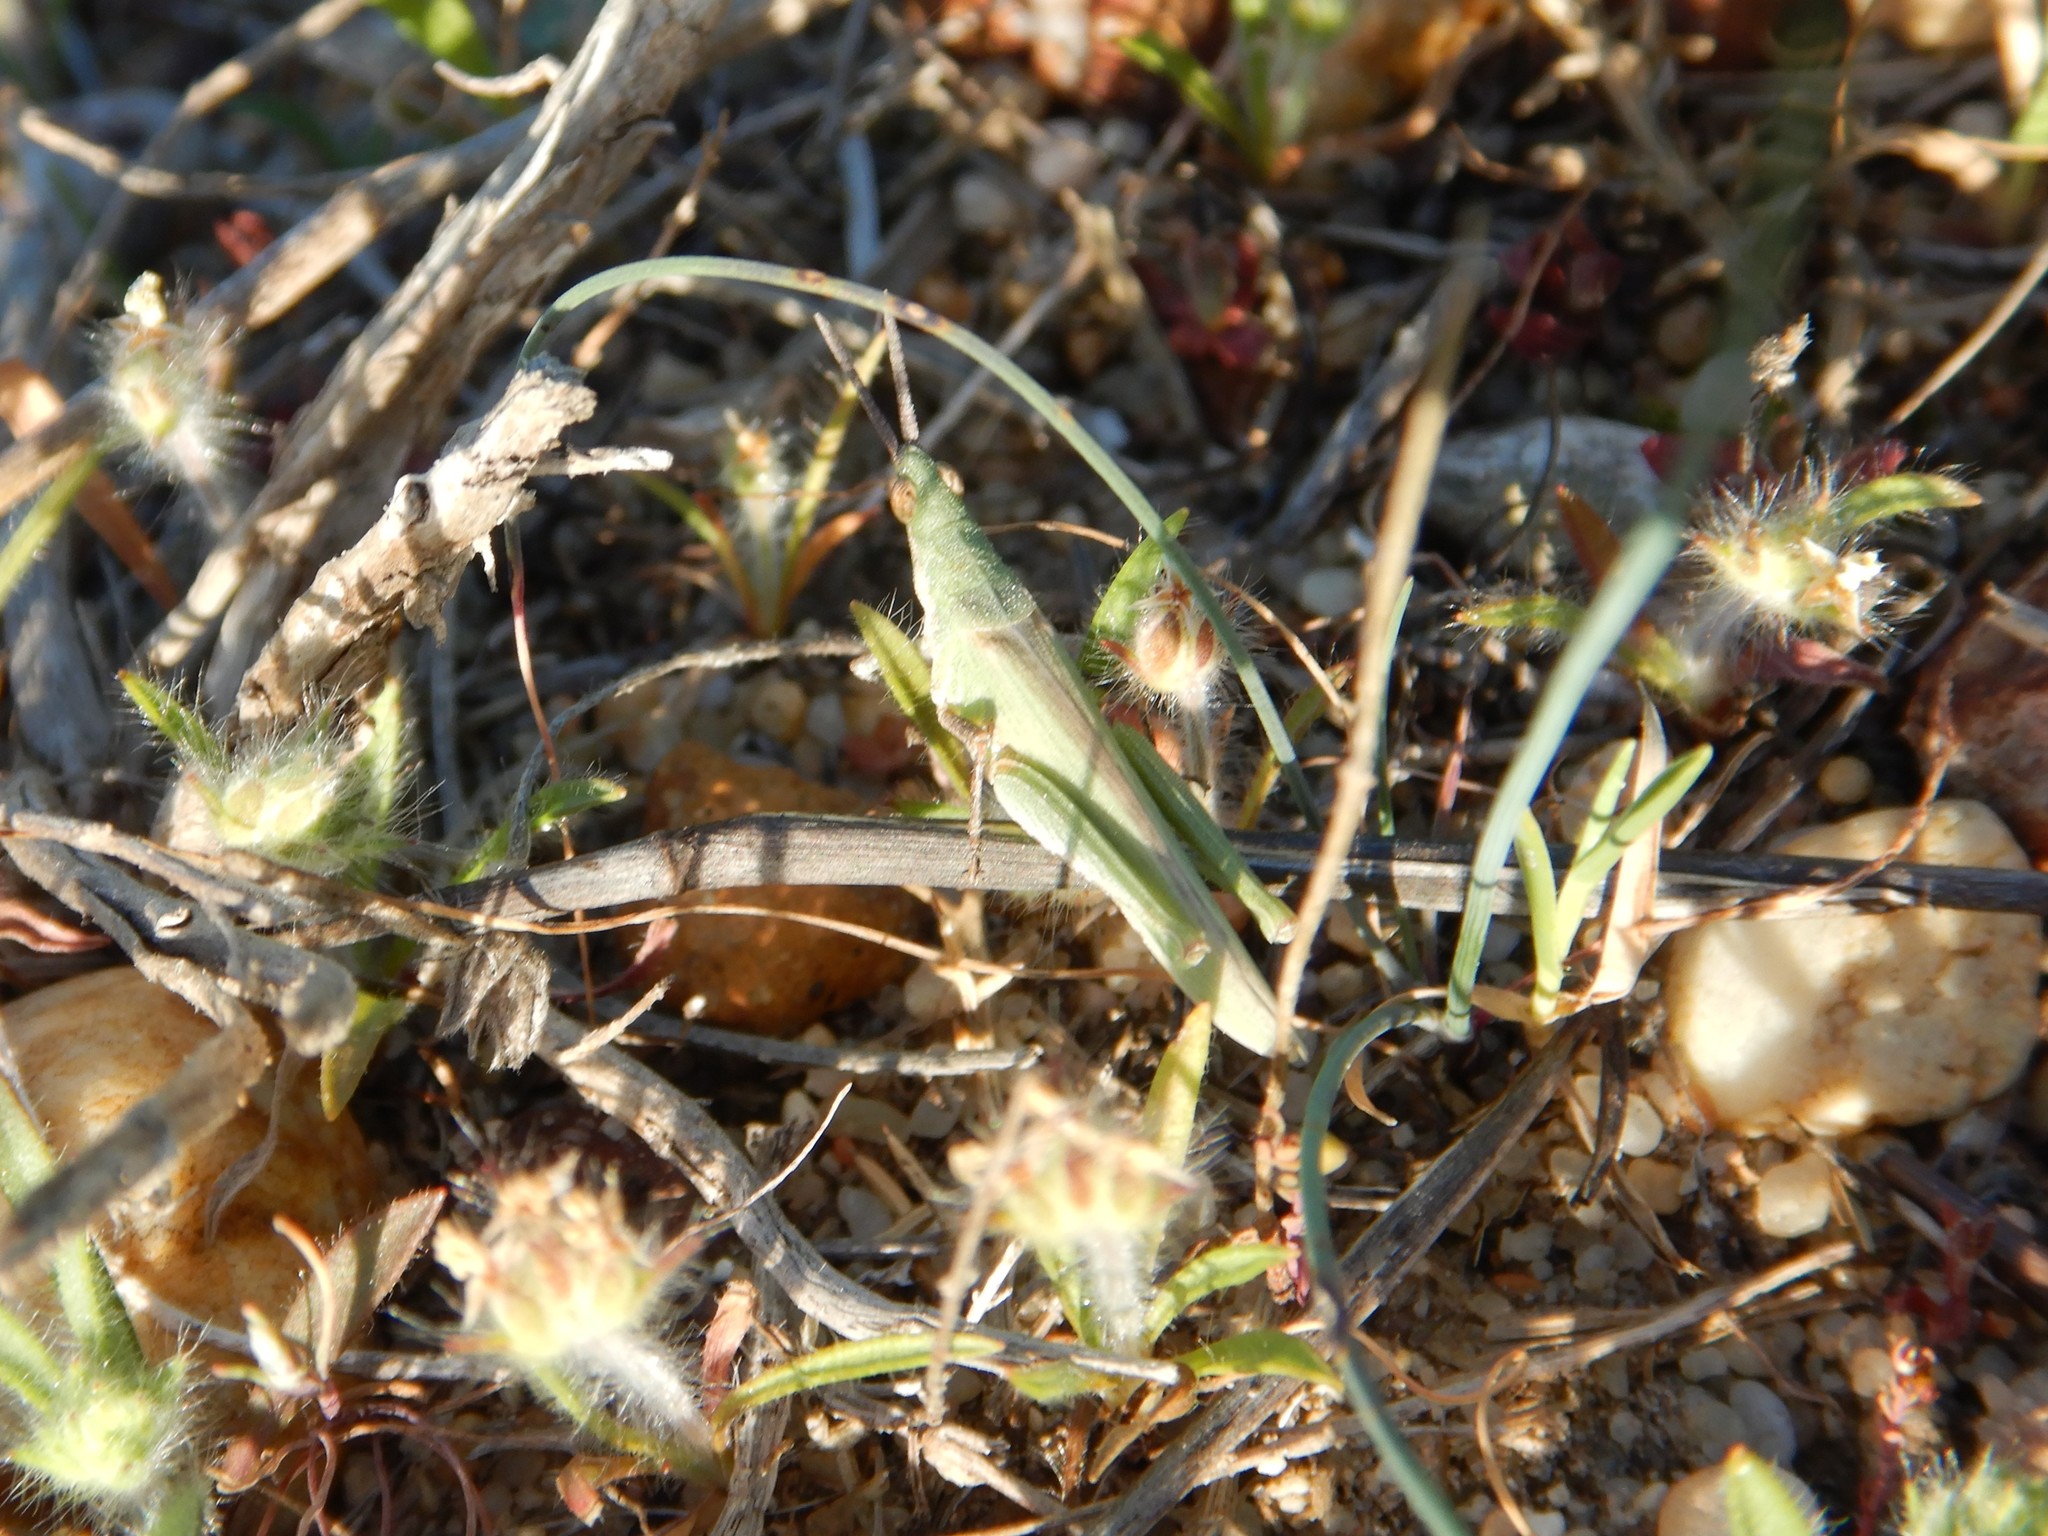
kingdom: Animalia
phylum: Arthropoda
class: Insecta
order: Orthoptera
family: Pyrgomorphidae
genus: Pyrgomorpha
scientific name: Pyrgomorpha conica
